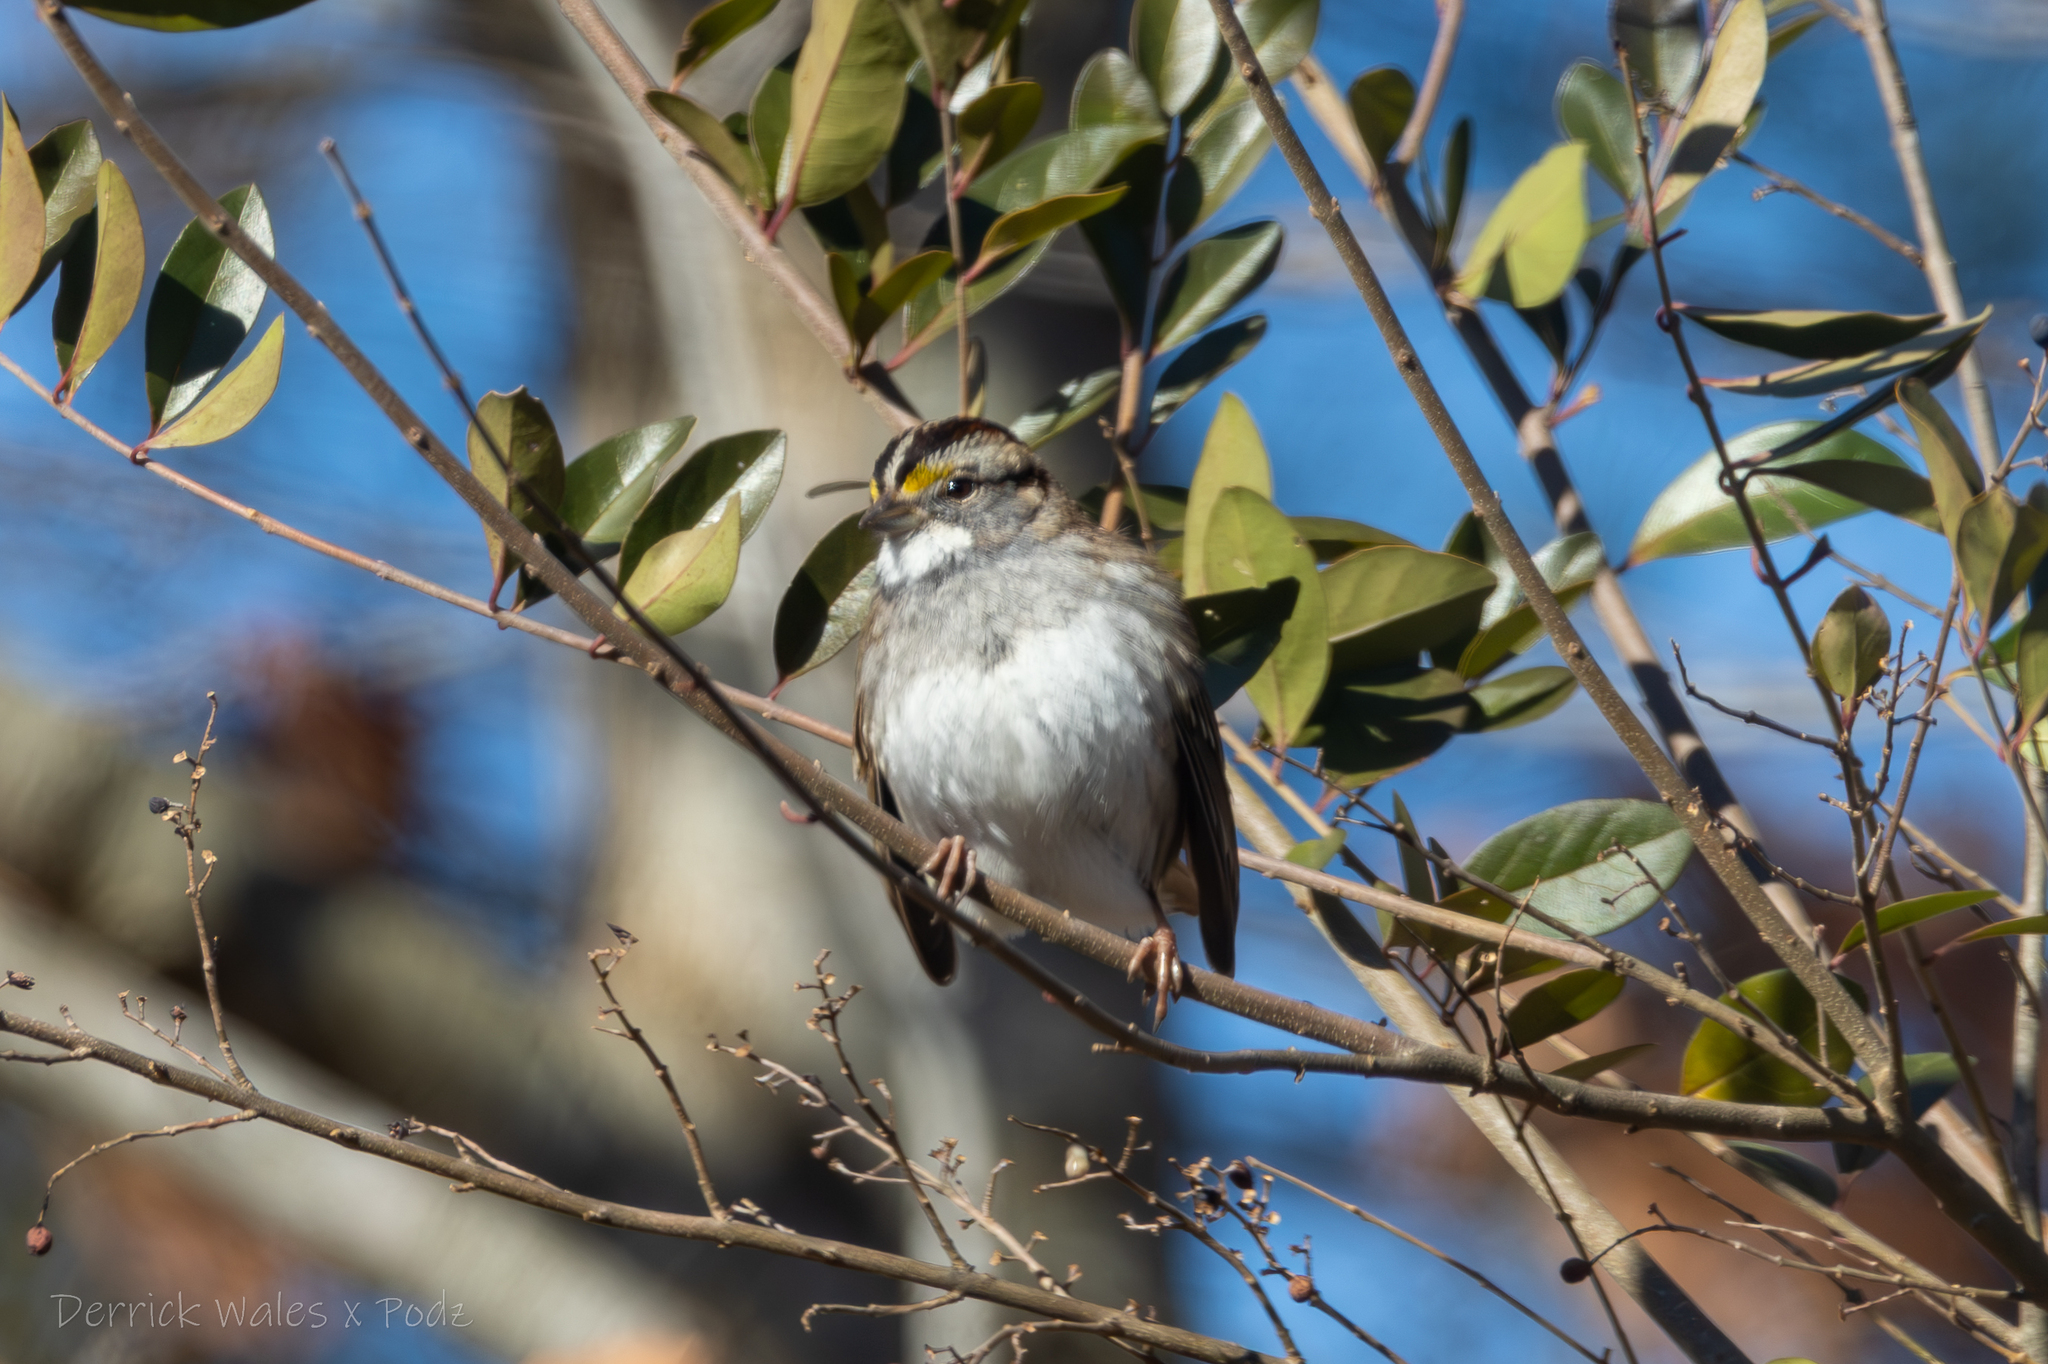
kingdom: Animalia
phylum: Chordata
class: Aves
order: Passeriformes
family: Passerellidae
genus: Zonotrichia
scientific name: Zonotrichia albicollis
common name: White-throated sparrow
